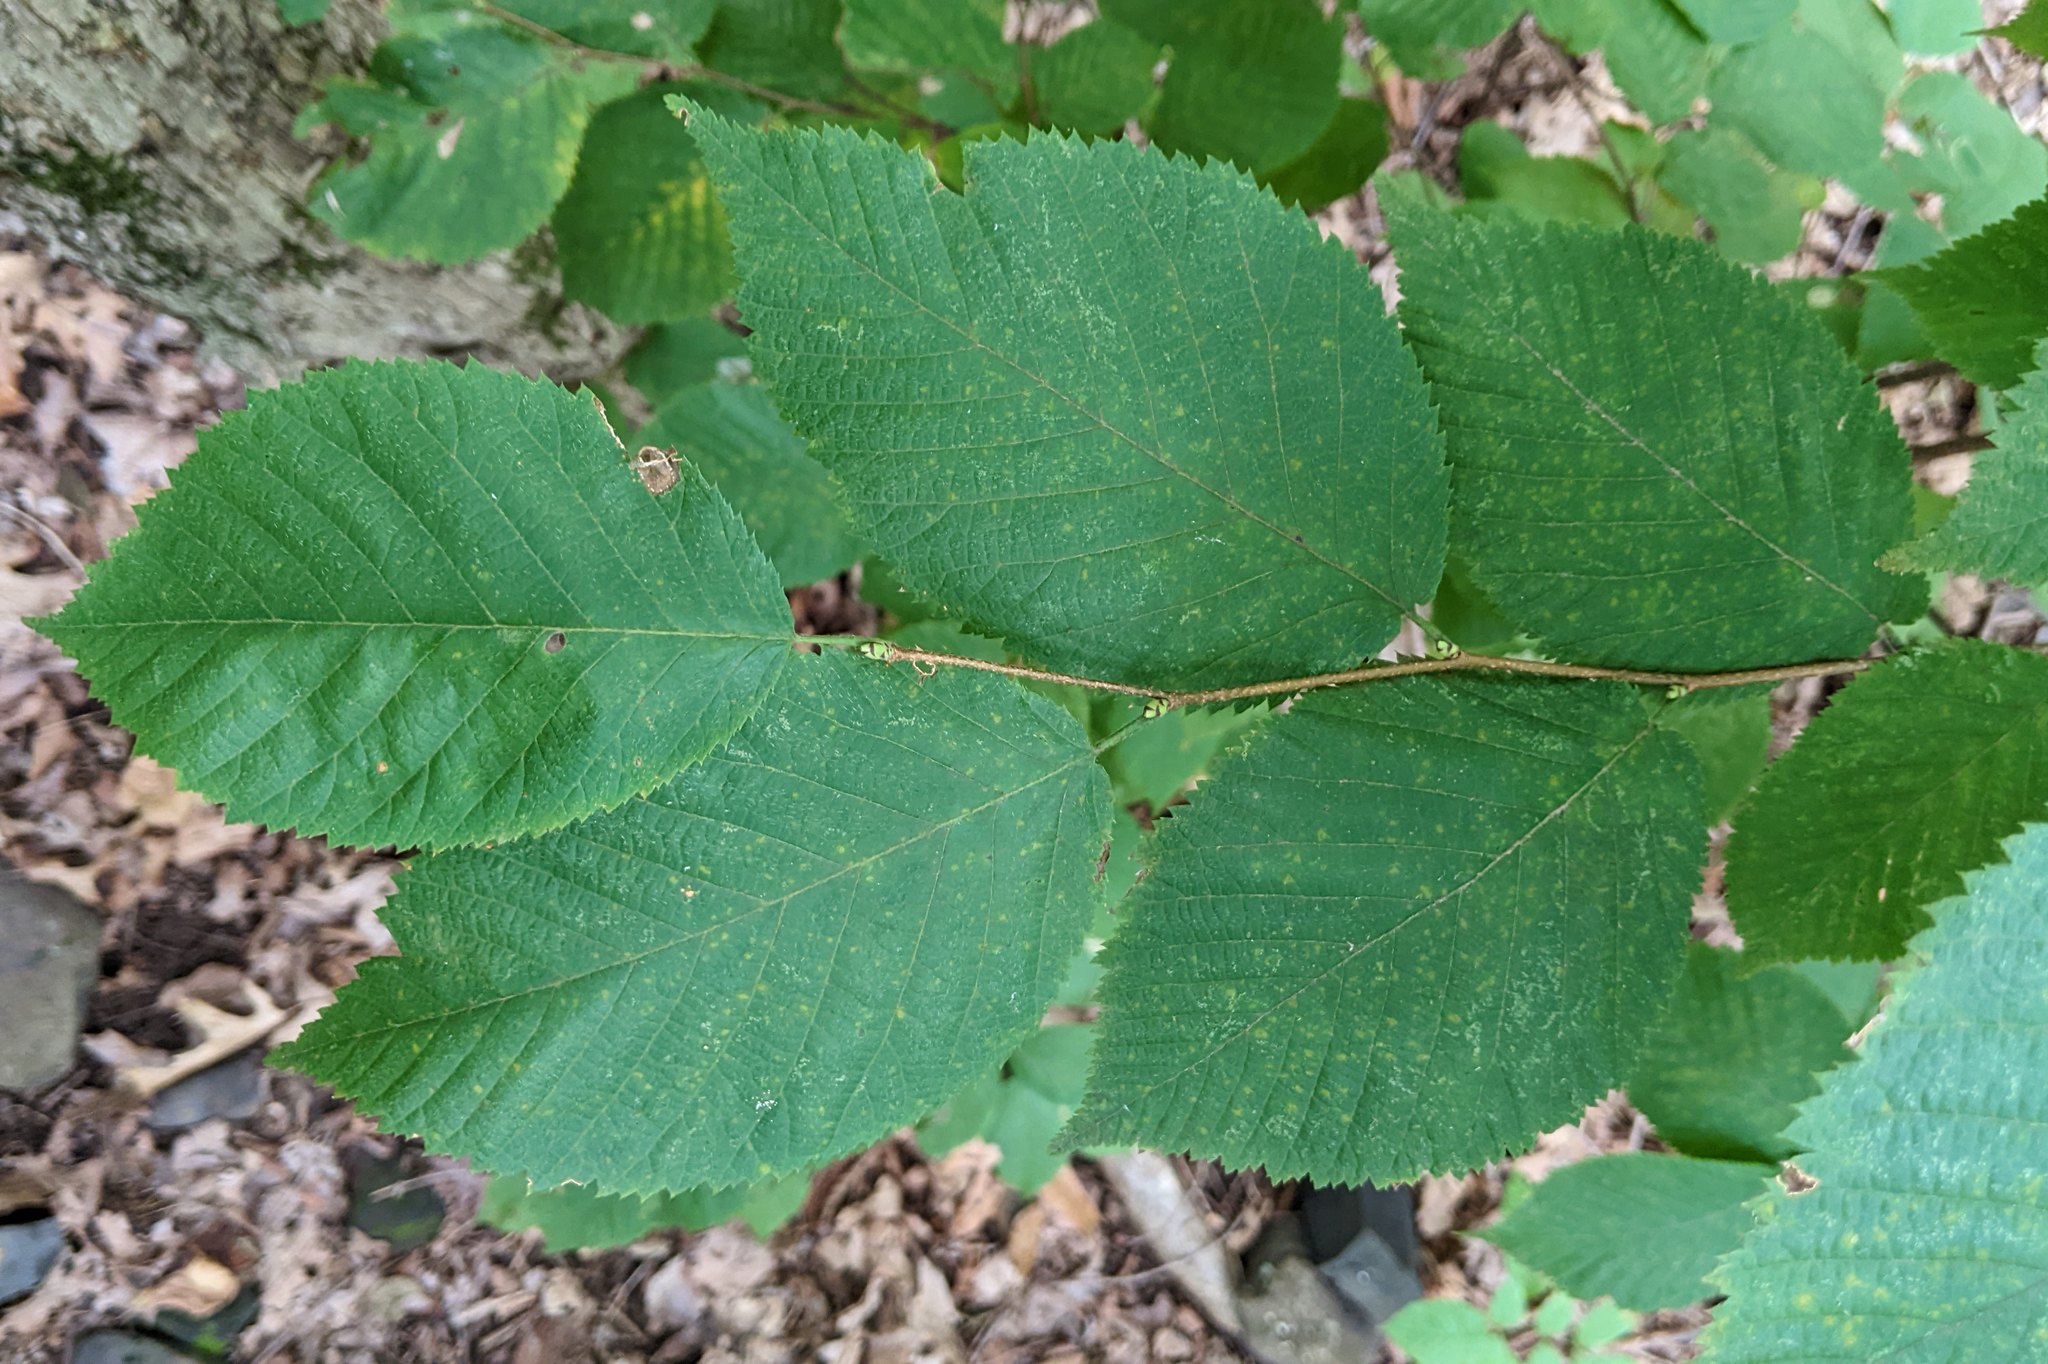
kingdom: Plantae
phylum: Tracheophyta
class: Magnoliopsida
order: Fagales
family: Betulaceae
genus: Ostrya
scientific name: Ostrya virginiana
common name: Ironwood
